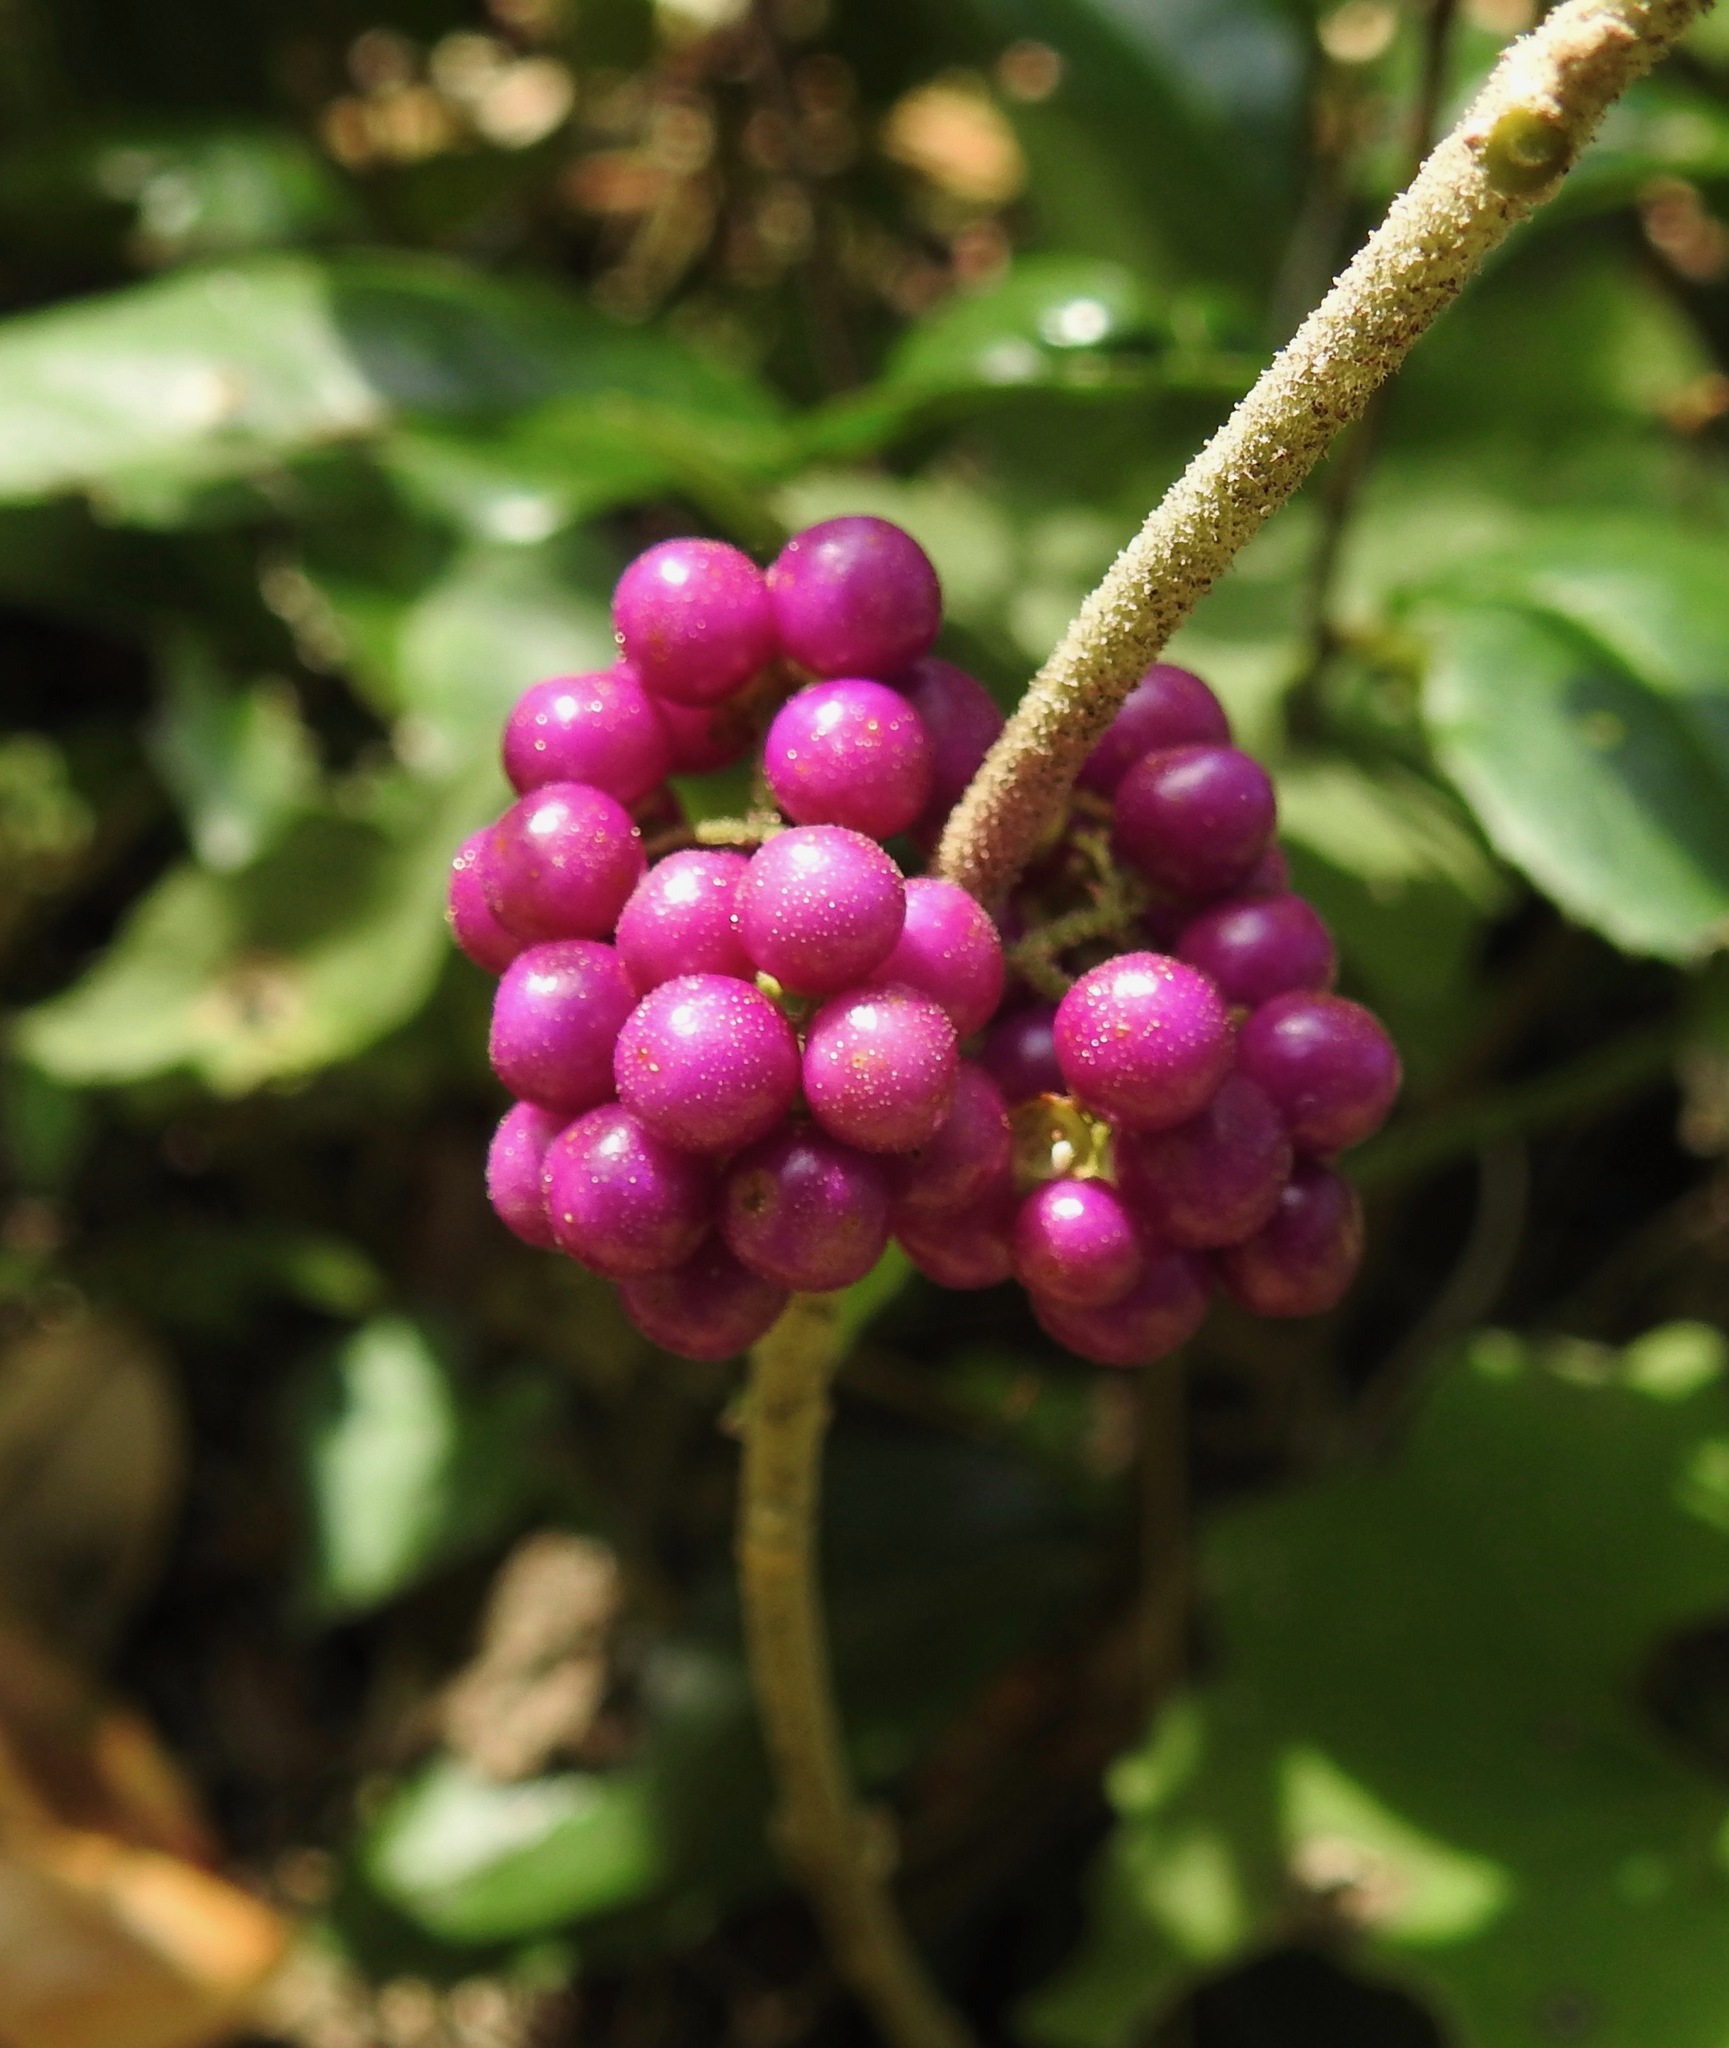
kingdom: Plantae
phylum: Tracheophyta
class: Magnoliopsida
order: Lamiales
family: Lamiaceae
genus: Callicarpa
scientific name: Callicarpa americana
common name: American beautyberry
